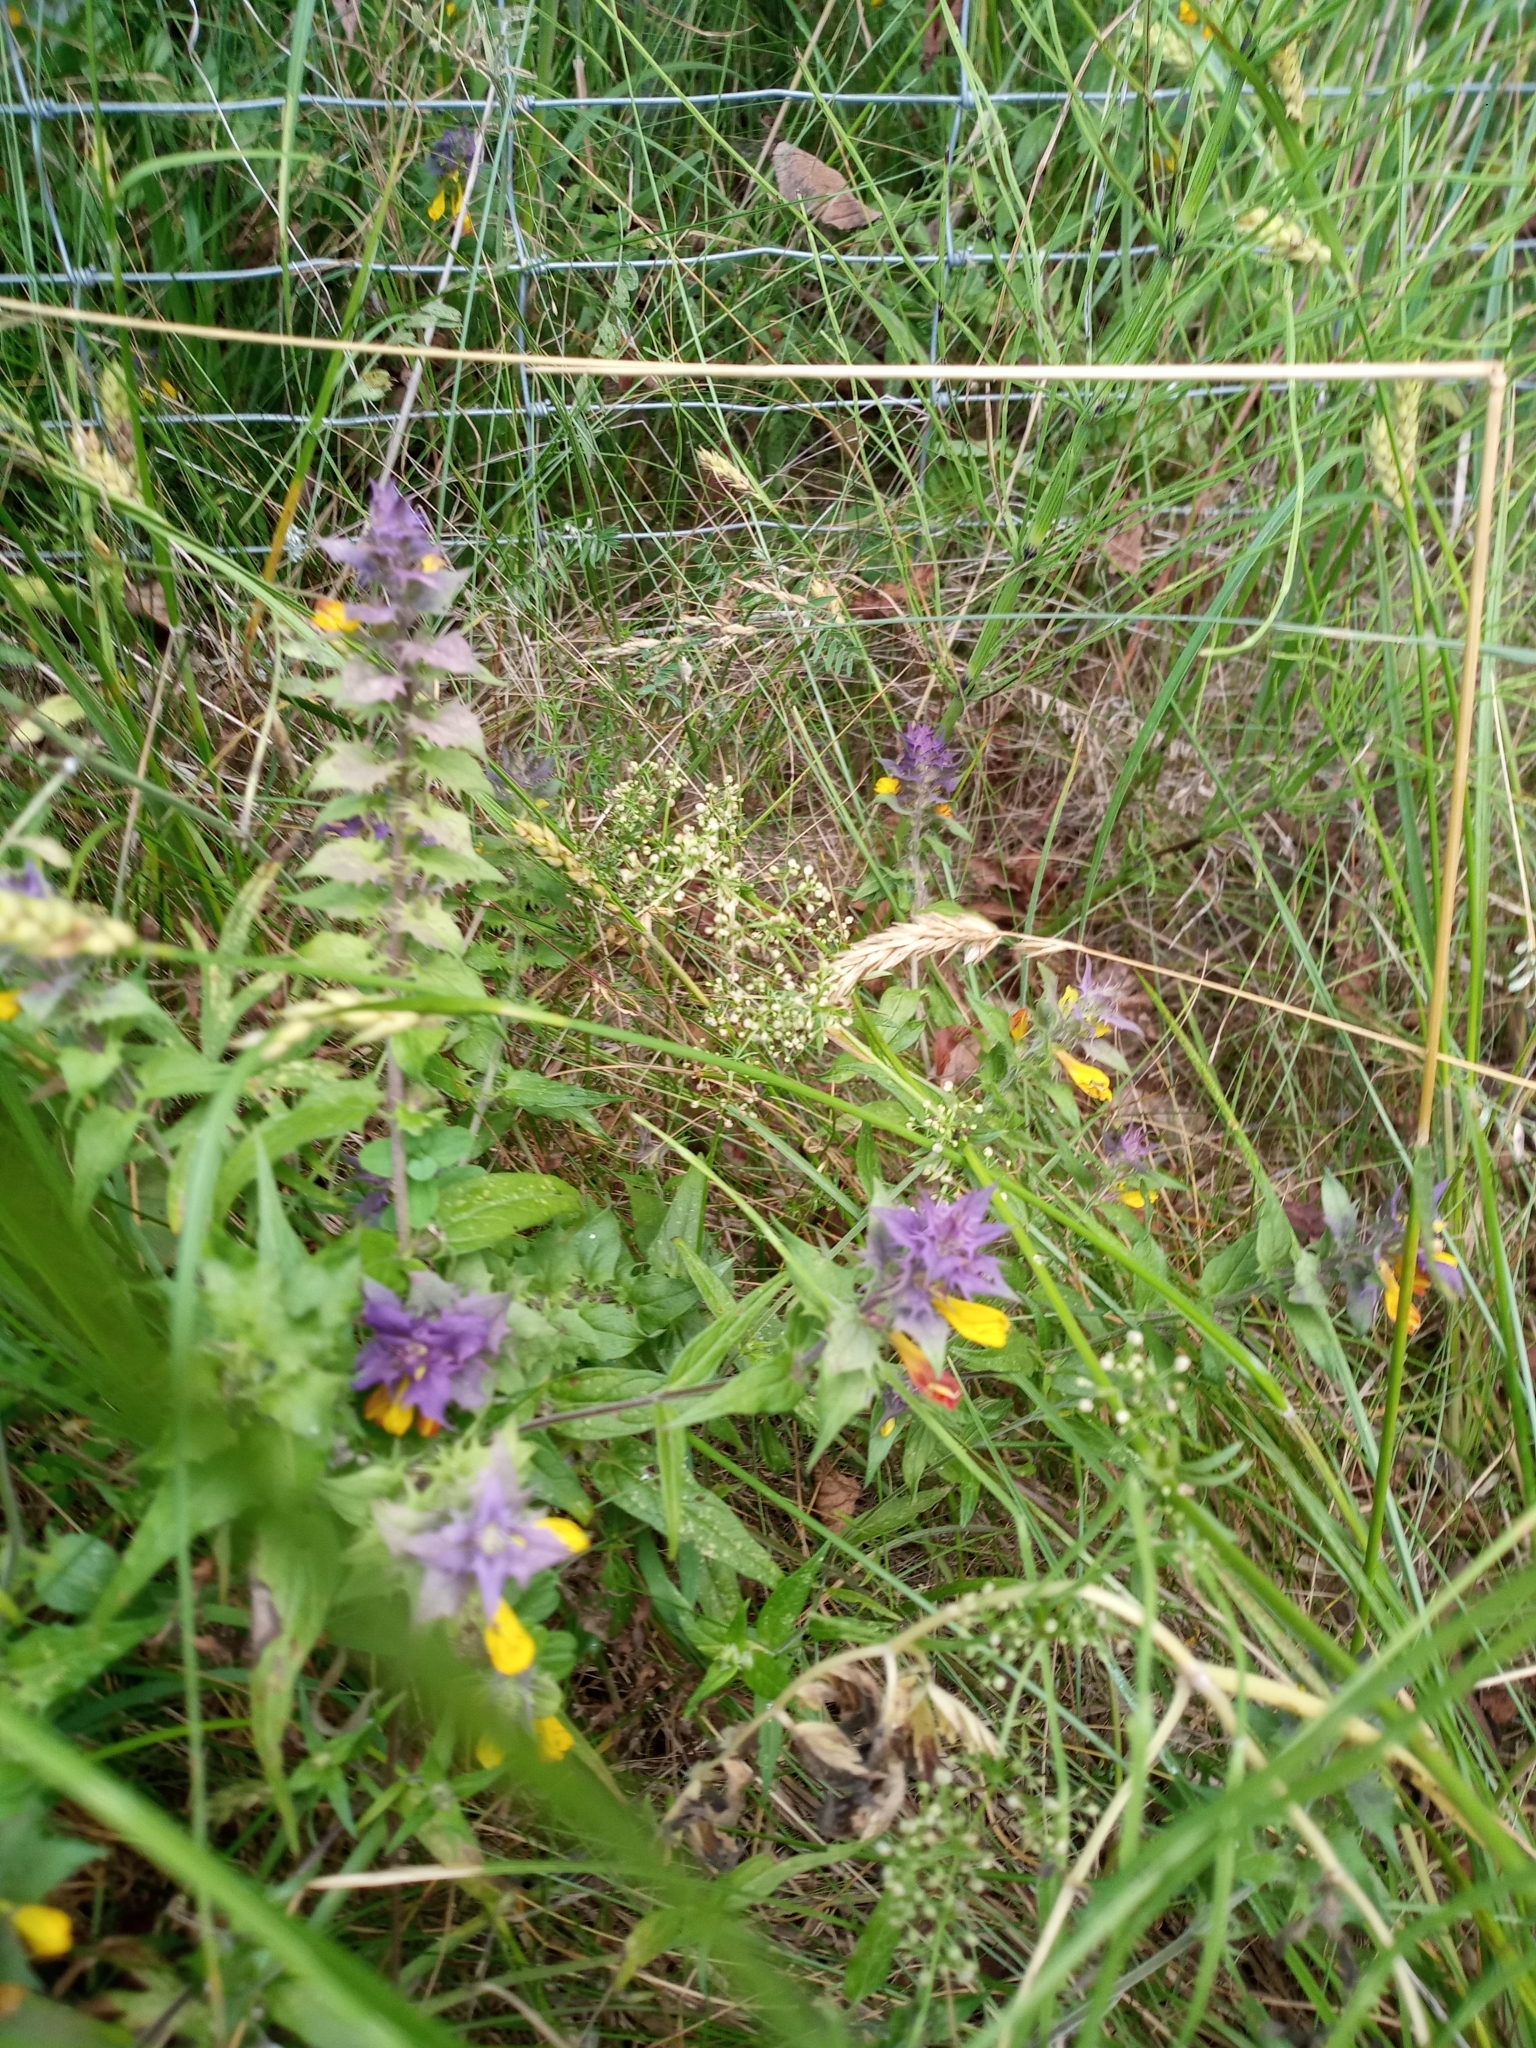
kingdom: Plantae
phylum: Tracheophyta
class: Magnoliopsida
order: Lamiales
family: Orobanchaceae
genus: Melampyrum
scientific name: Melampyrum nemorosum
